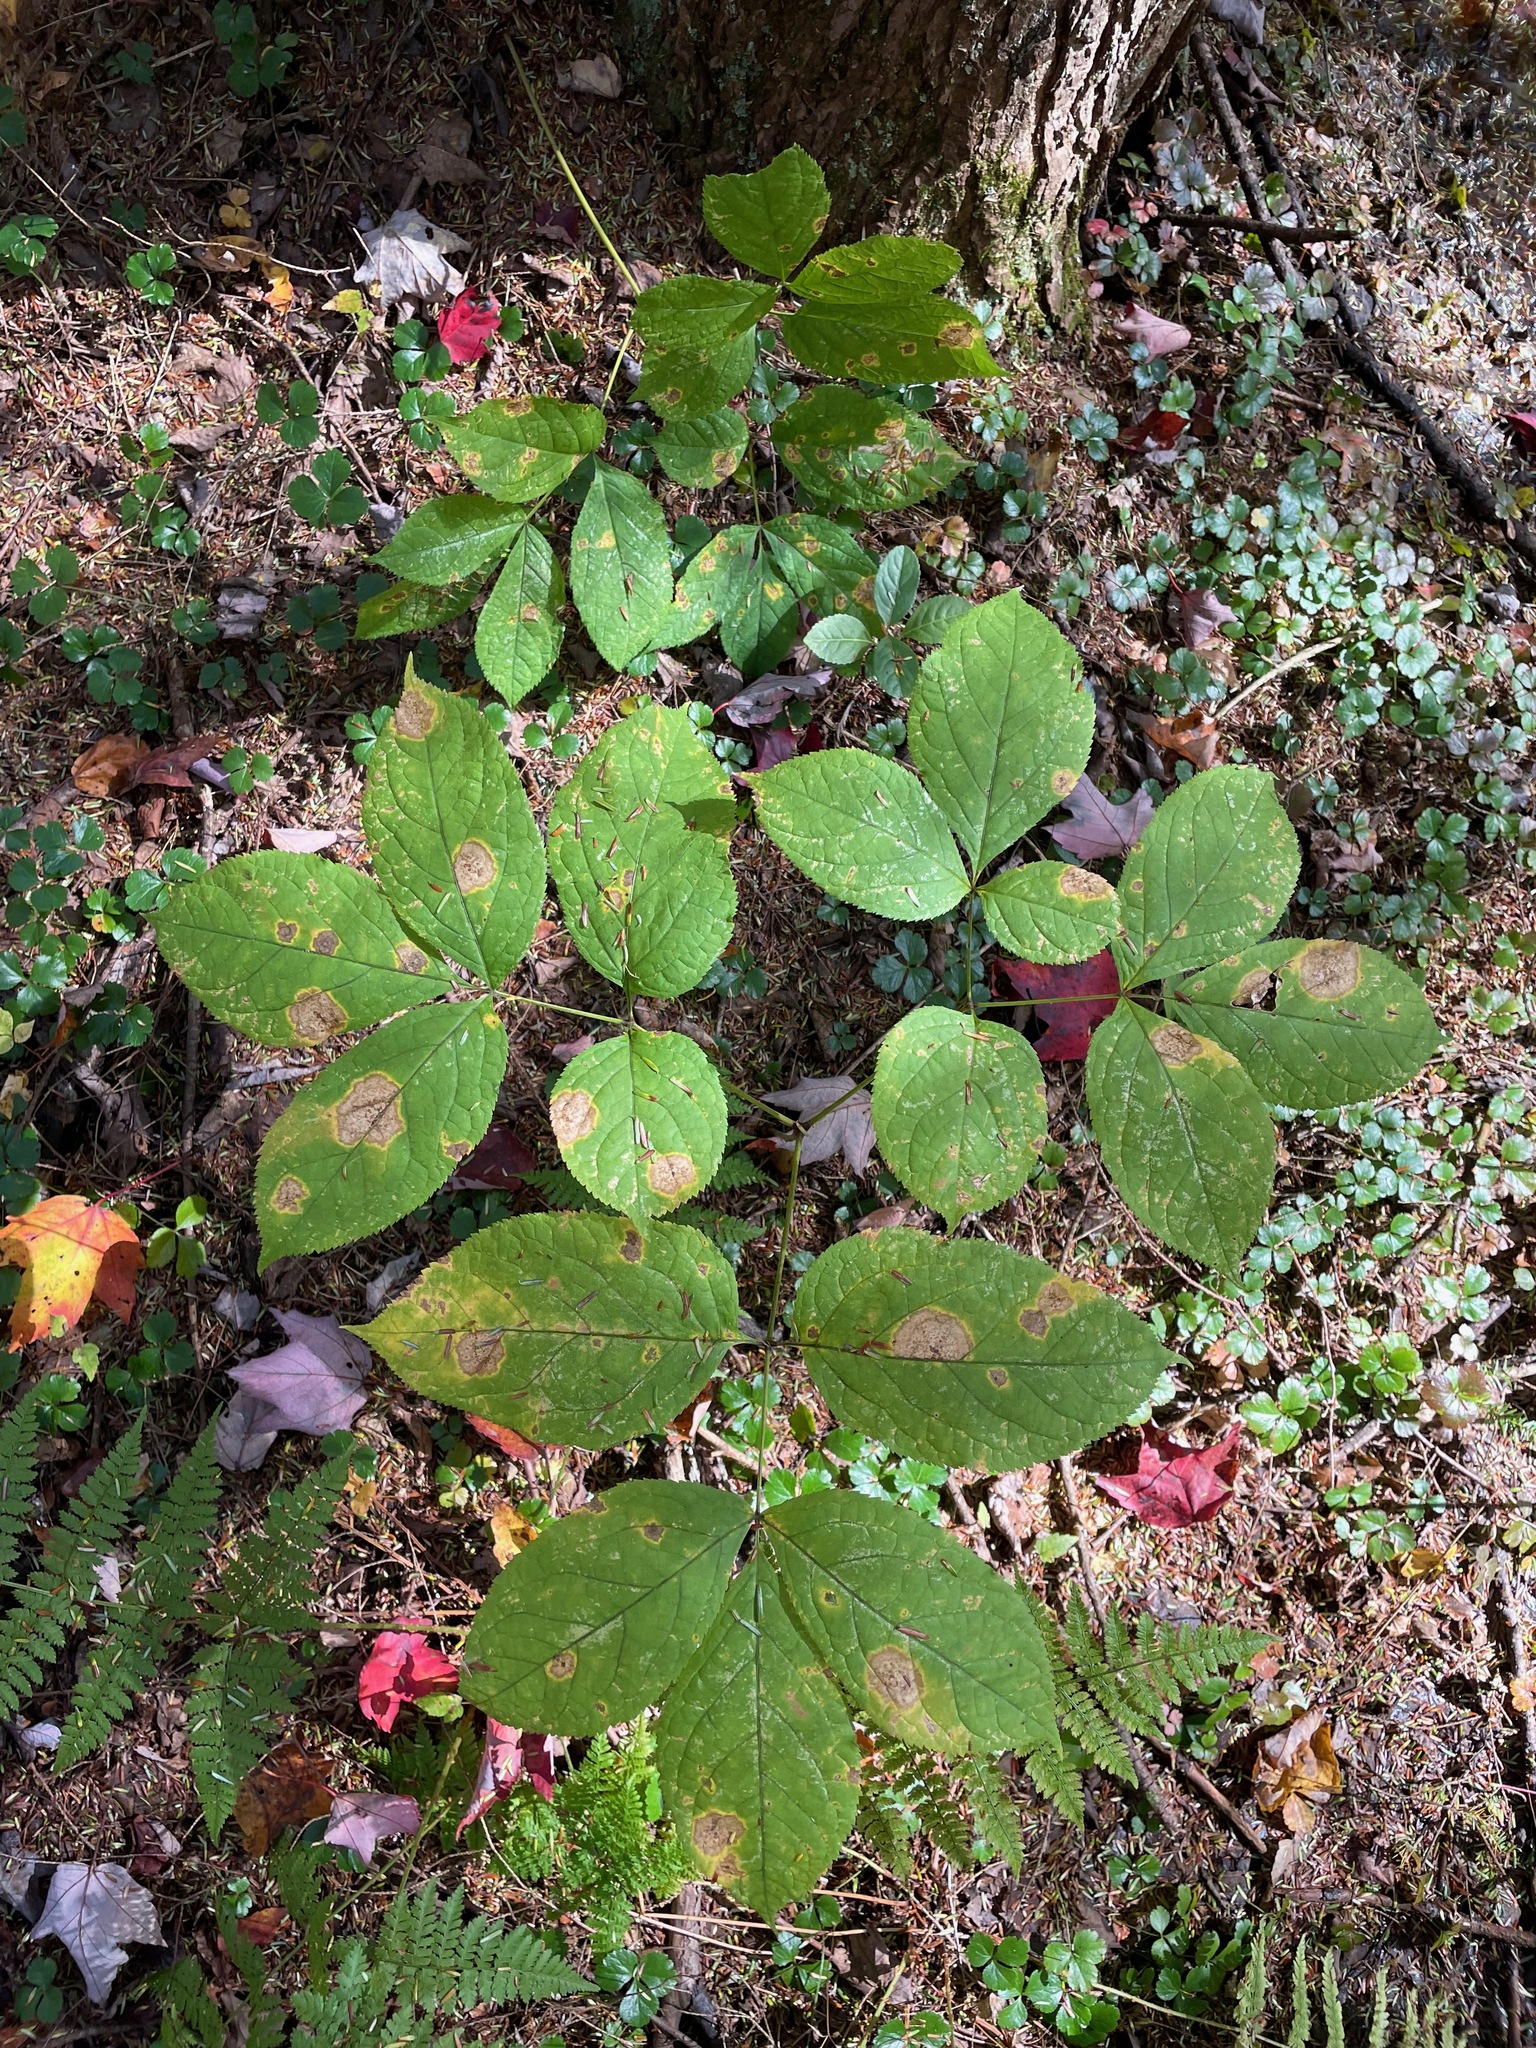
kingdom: Plantae
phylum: Tracheophyta
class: Magnoliopsida
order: Apiales
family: Araliaceae
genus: Aralia
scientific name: Aralia nudicaulis
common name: Wild sarsaparilla
